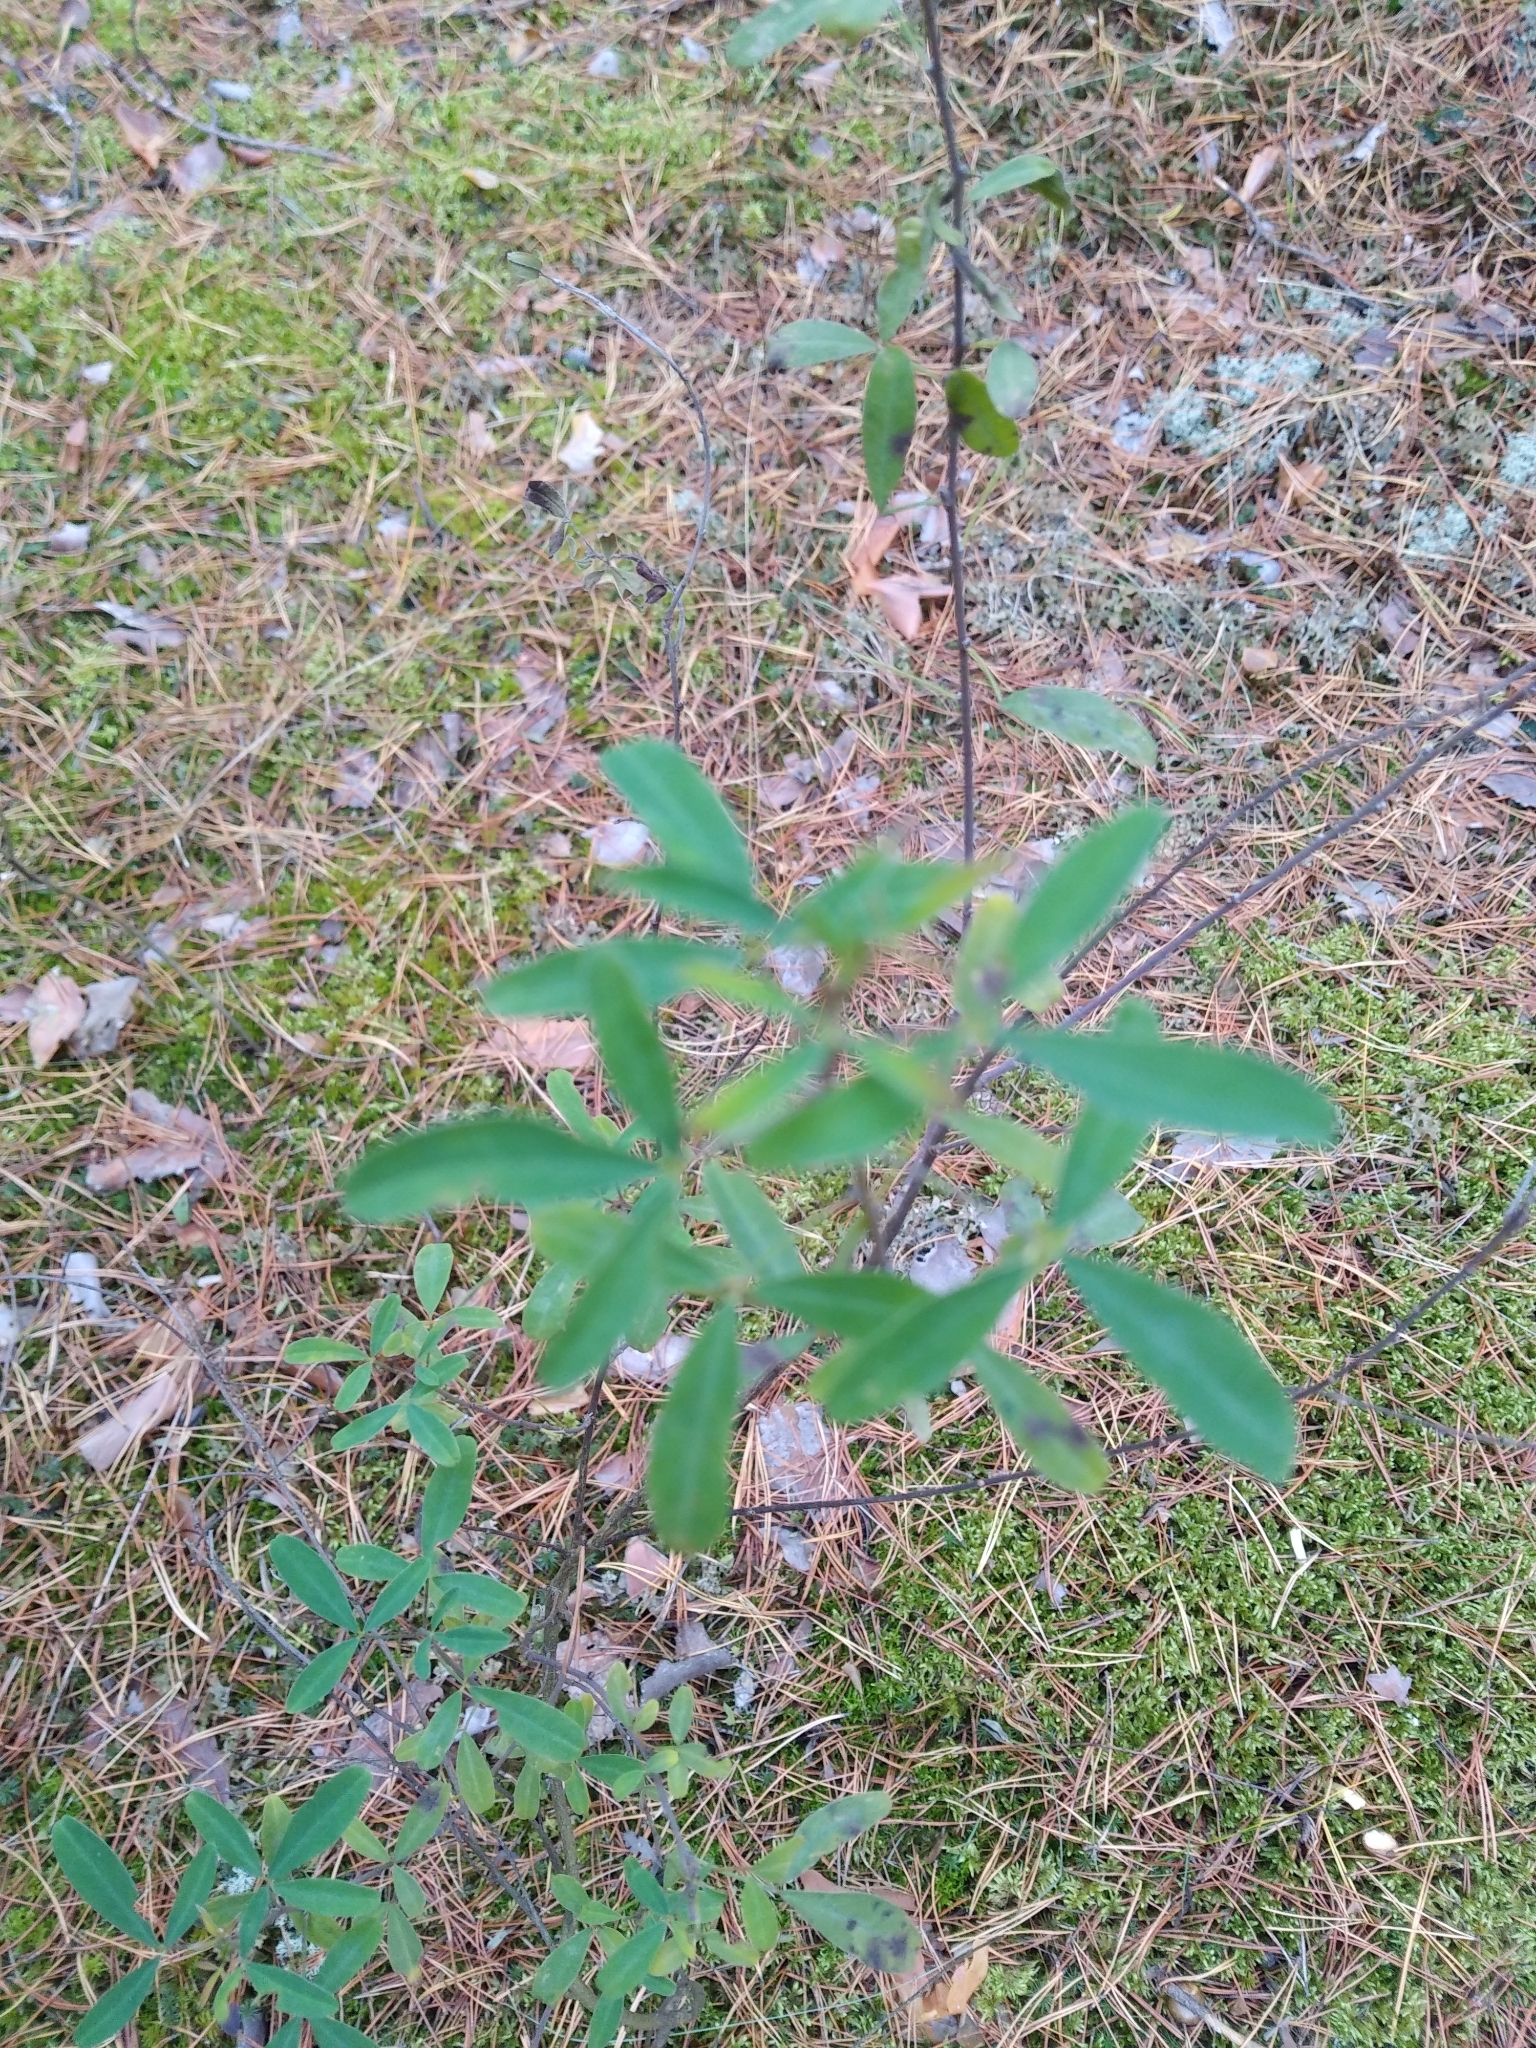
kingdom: Plantae
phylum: Tracheophyta
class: Magnoliopsida
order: Fabales
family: Fabaceae
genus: Chamaecytisus
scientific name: Chamaecytisus ruthenicus
